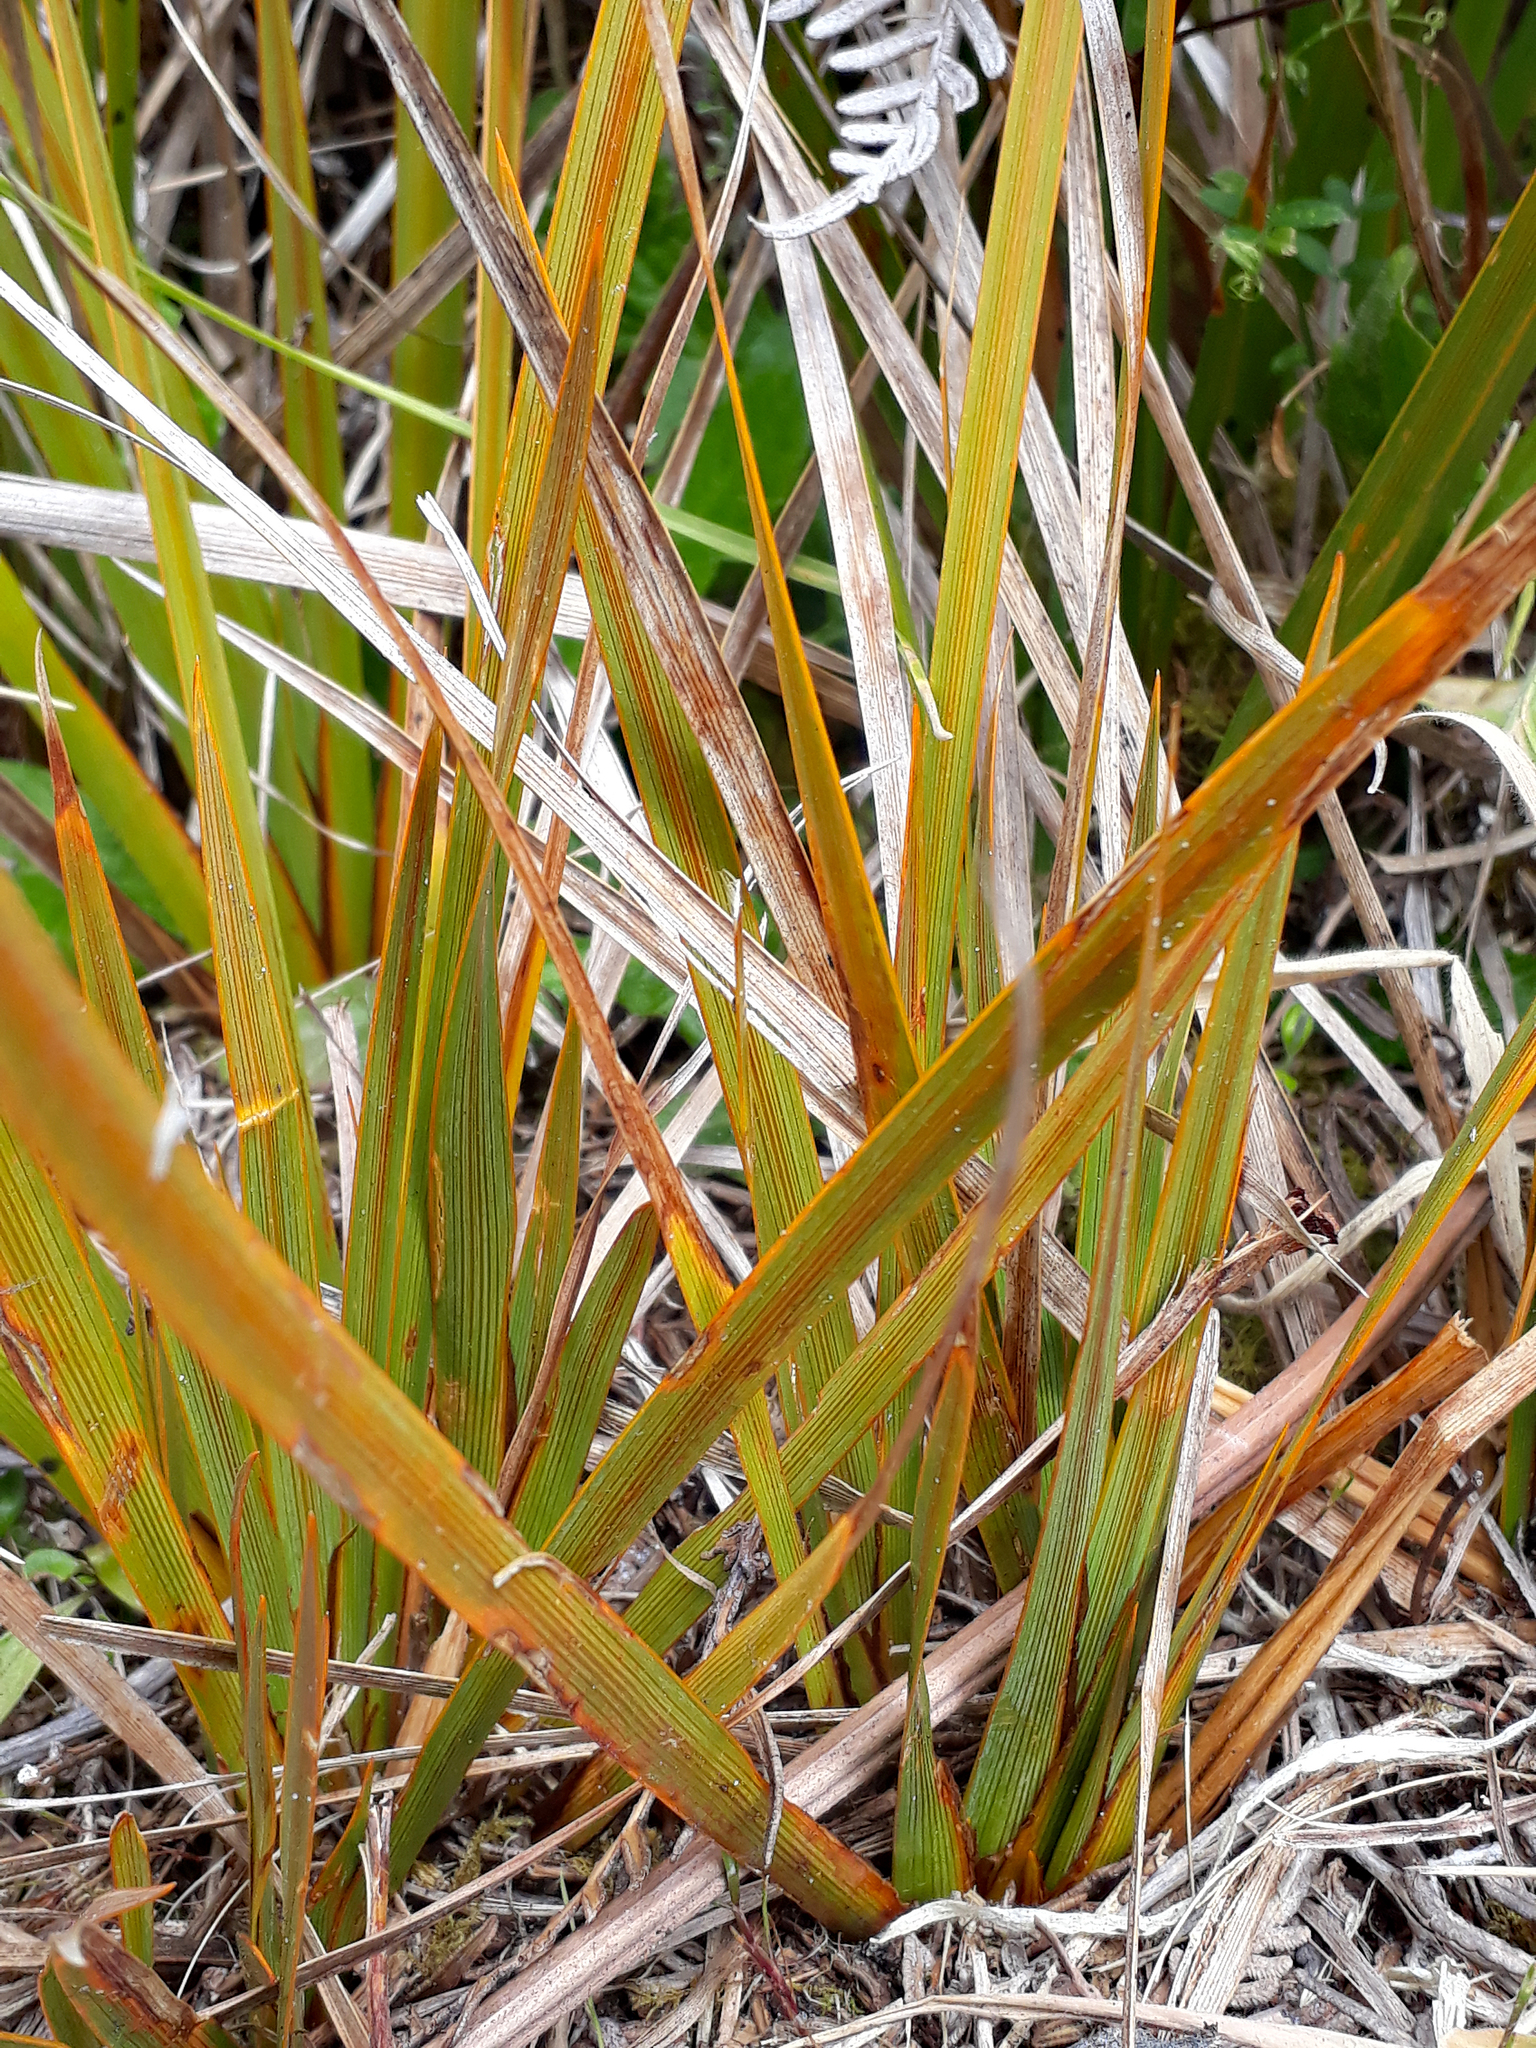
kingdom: Plantae
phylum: Tracheophyta
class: Liliopsida
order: Asparagales
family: Iridaceae
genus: Libertia
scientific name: Libertia peregrinans
